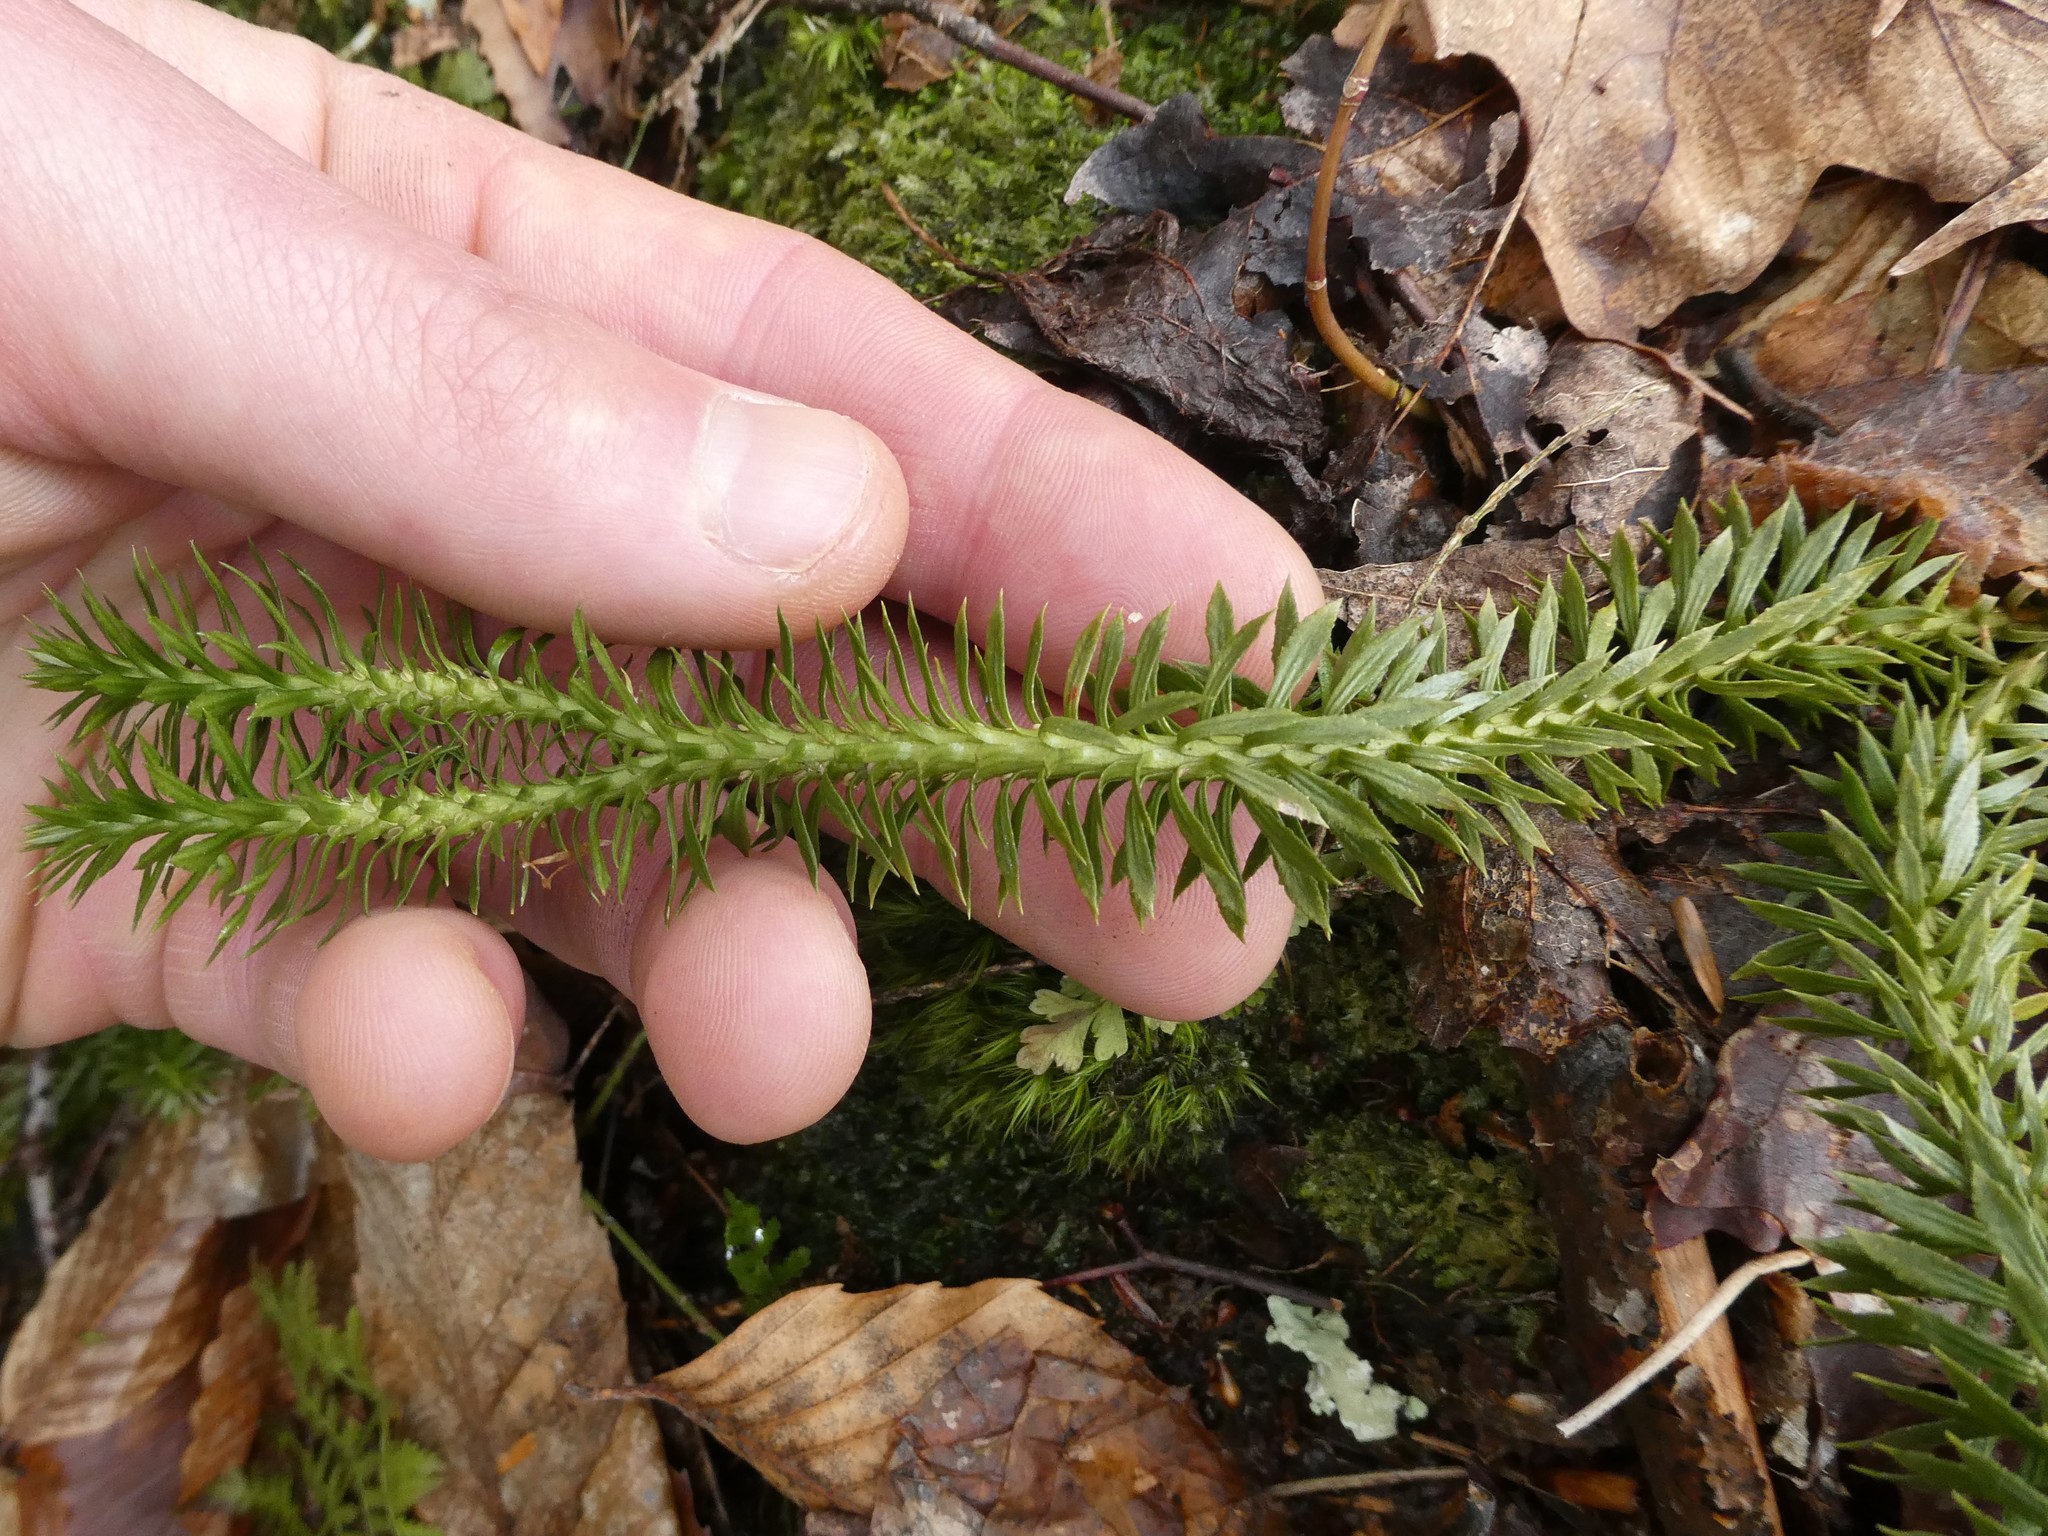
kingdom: Plantae
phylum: Tracheophyta
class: Lycopodiopsida
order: Lycopodiales
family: Lycopodiaceae
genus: Huperzia
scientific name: Huperzia lucidula
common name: Shining clubmoss
